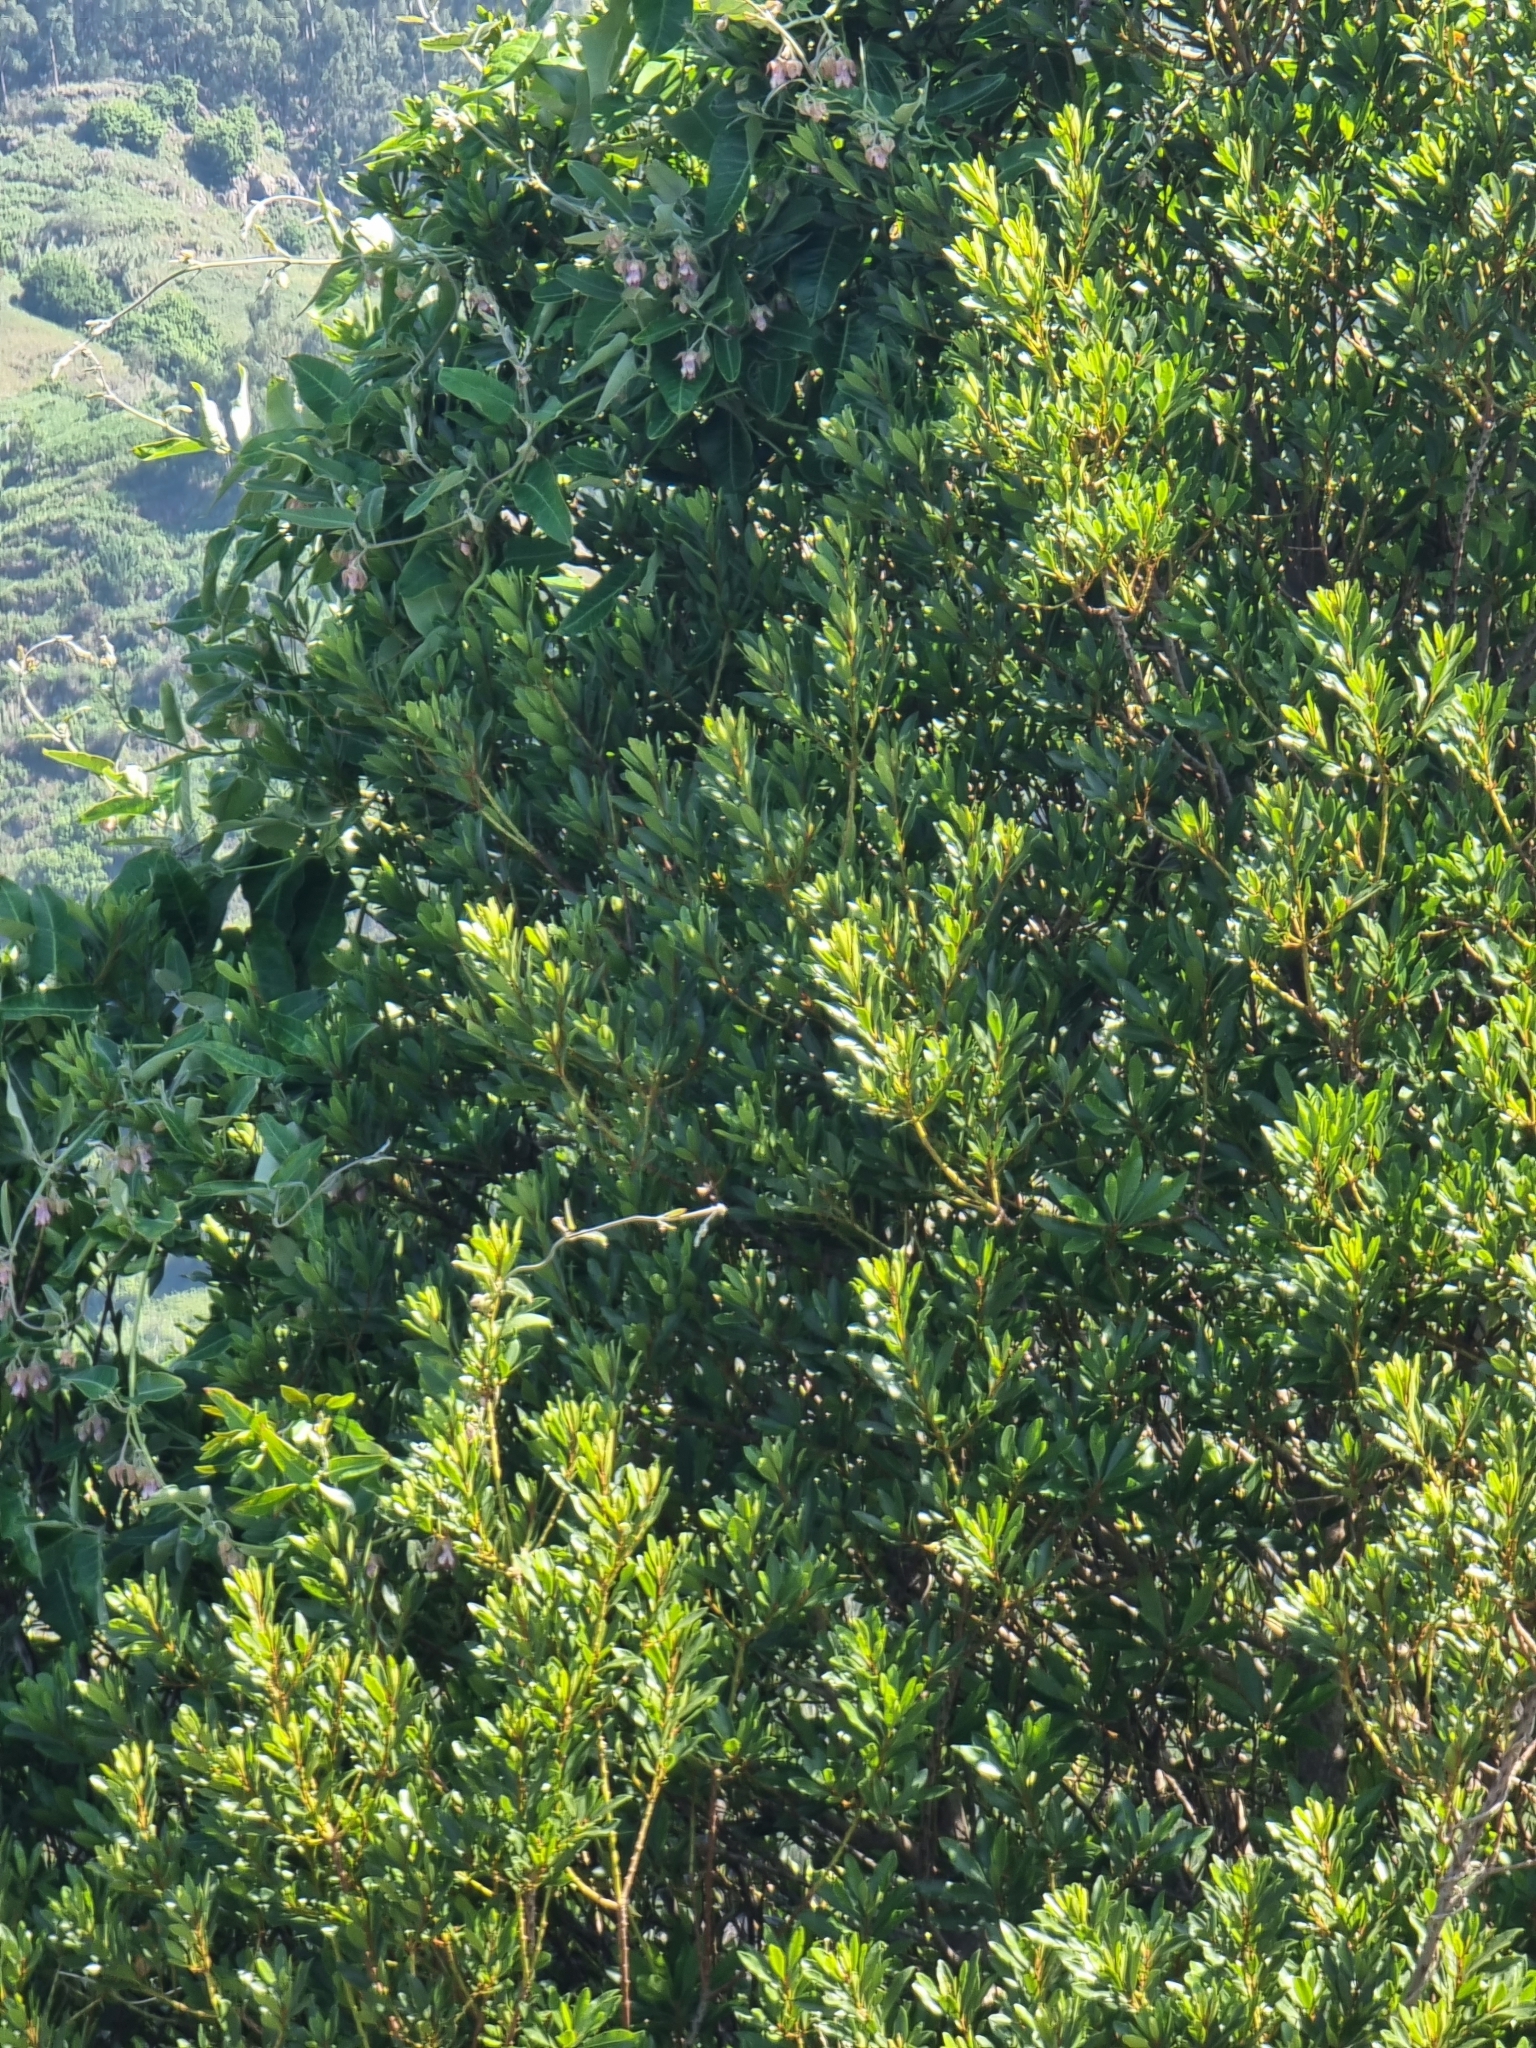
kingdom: Plantae
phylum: Tracheophyta
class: Magnoliopsida
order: Fagales
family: Myricaceae
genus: Morella
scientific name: Morella faya
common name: Firetree
